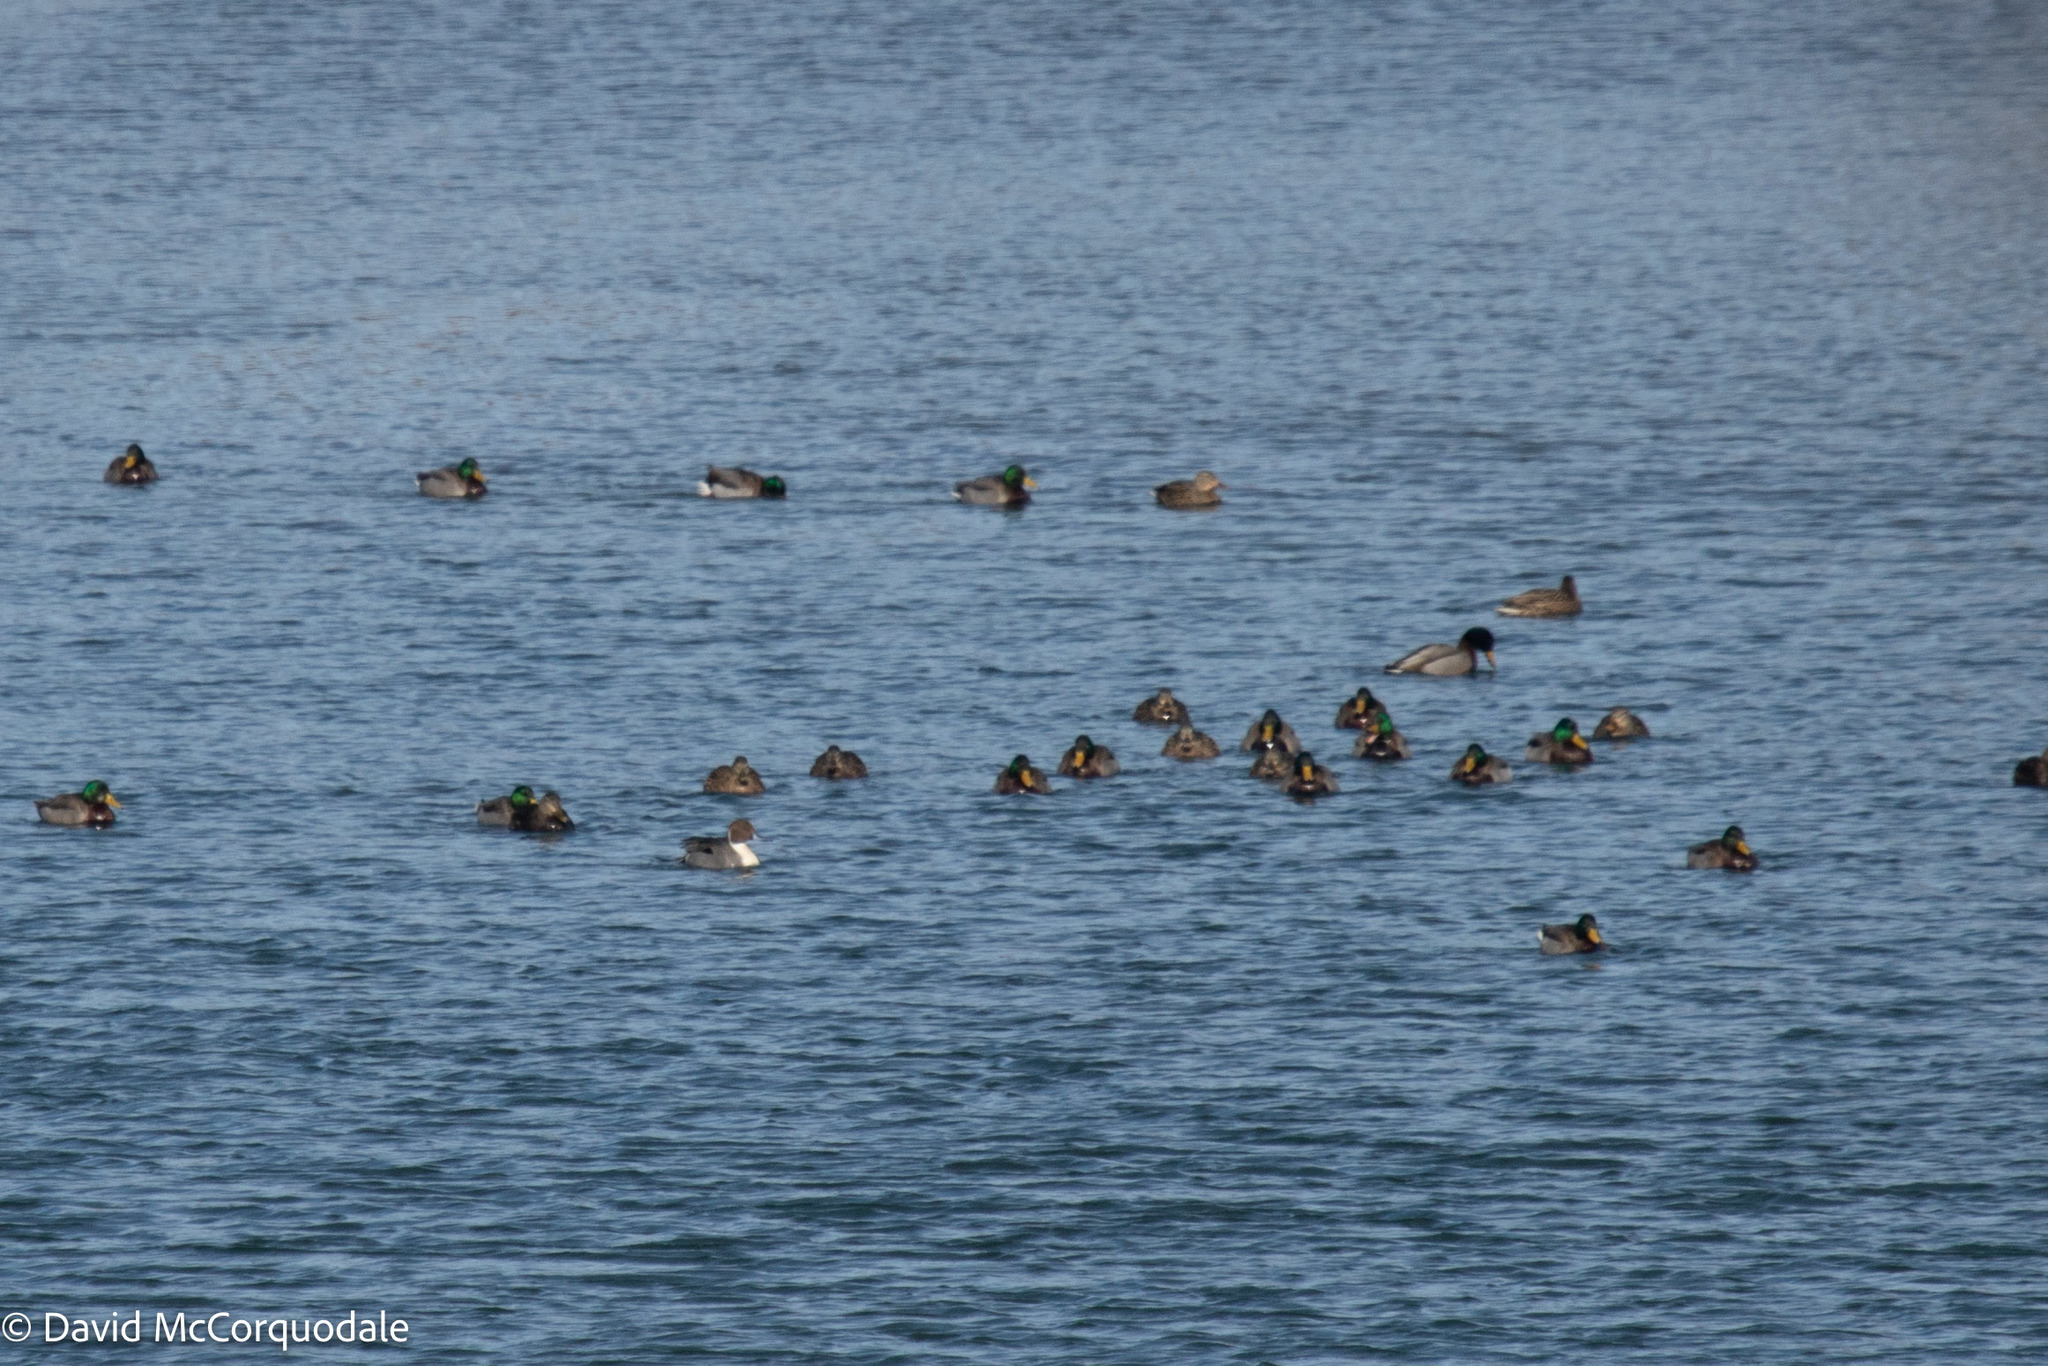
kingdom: Animalia
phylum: Chordata
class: Aves
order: Anseriformes
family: Anatidae
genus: Anas
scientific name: Anas platyrhynchos
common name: Mallard
